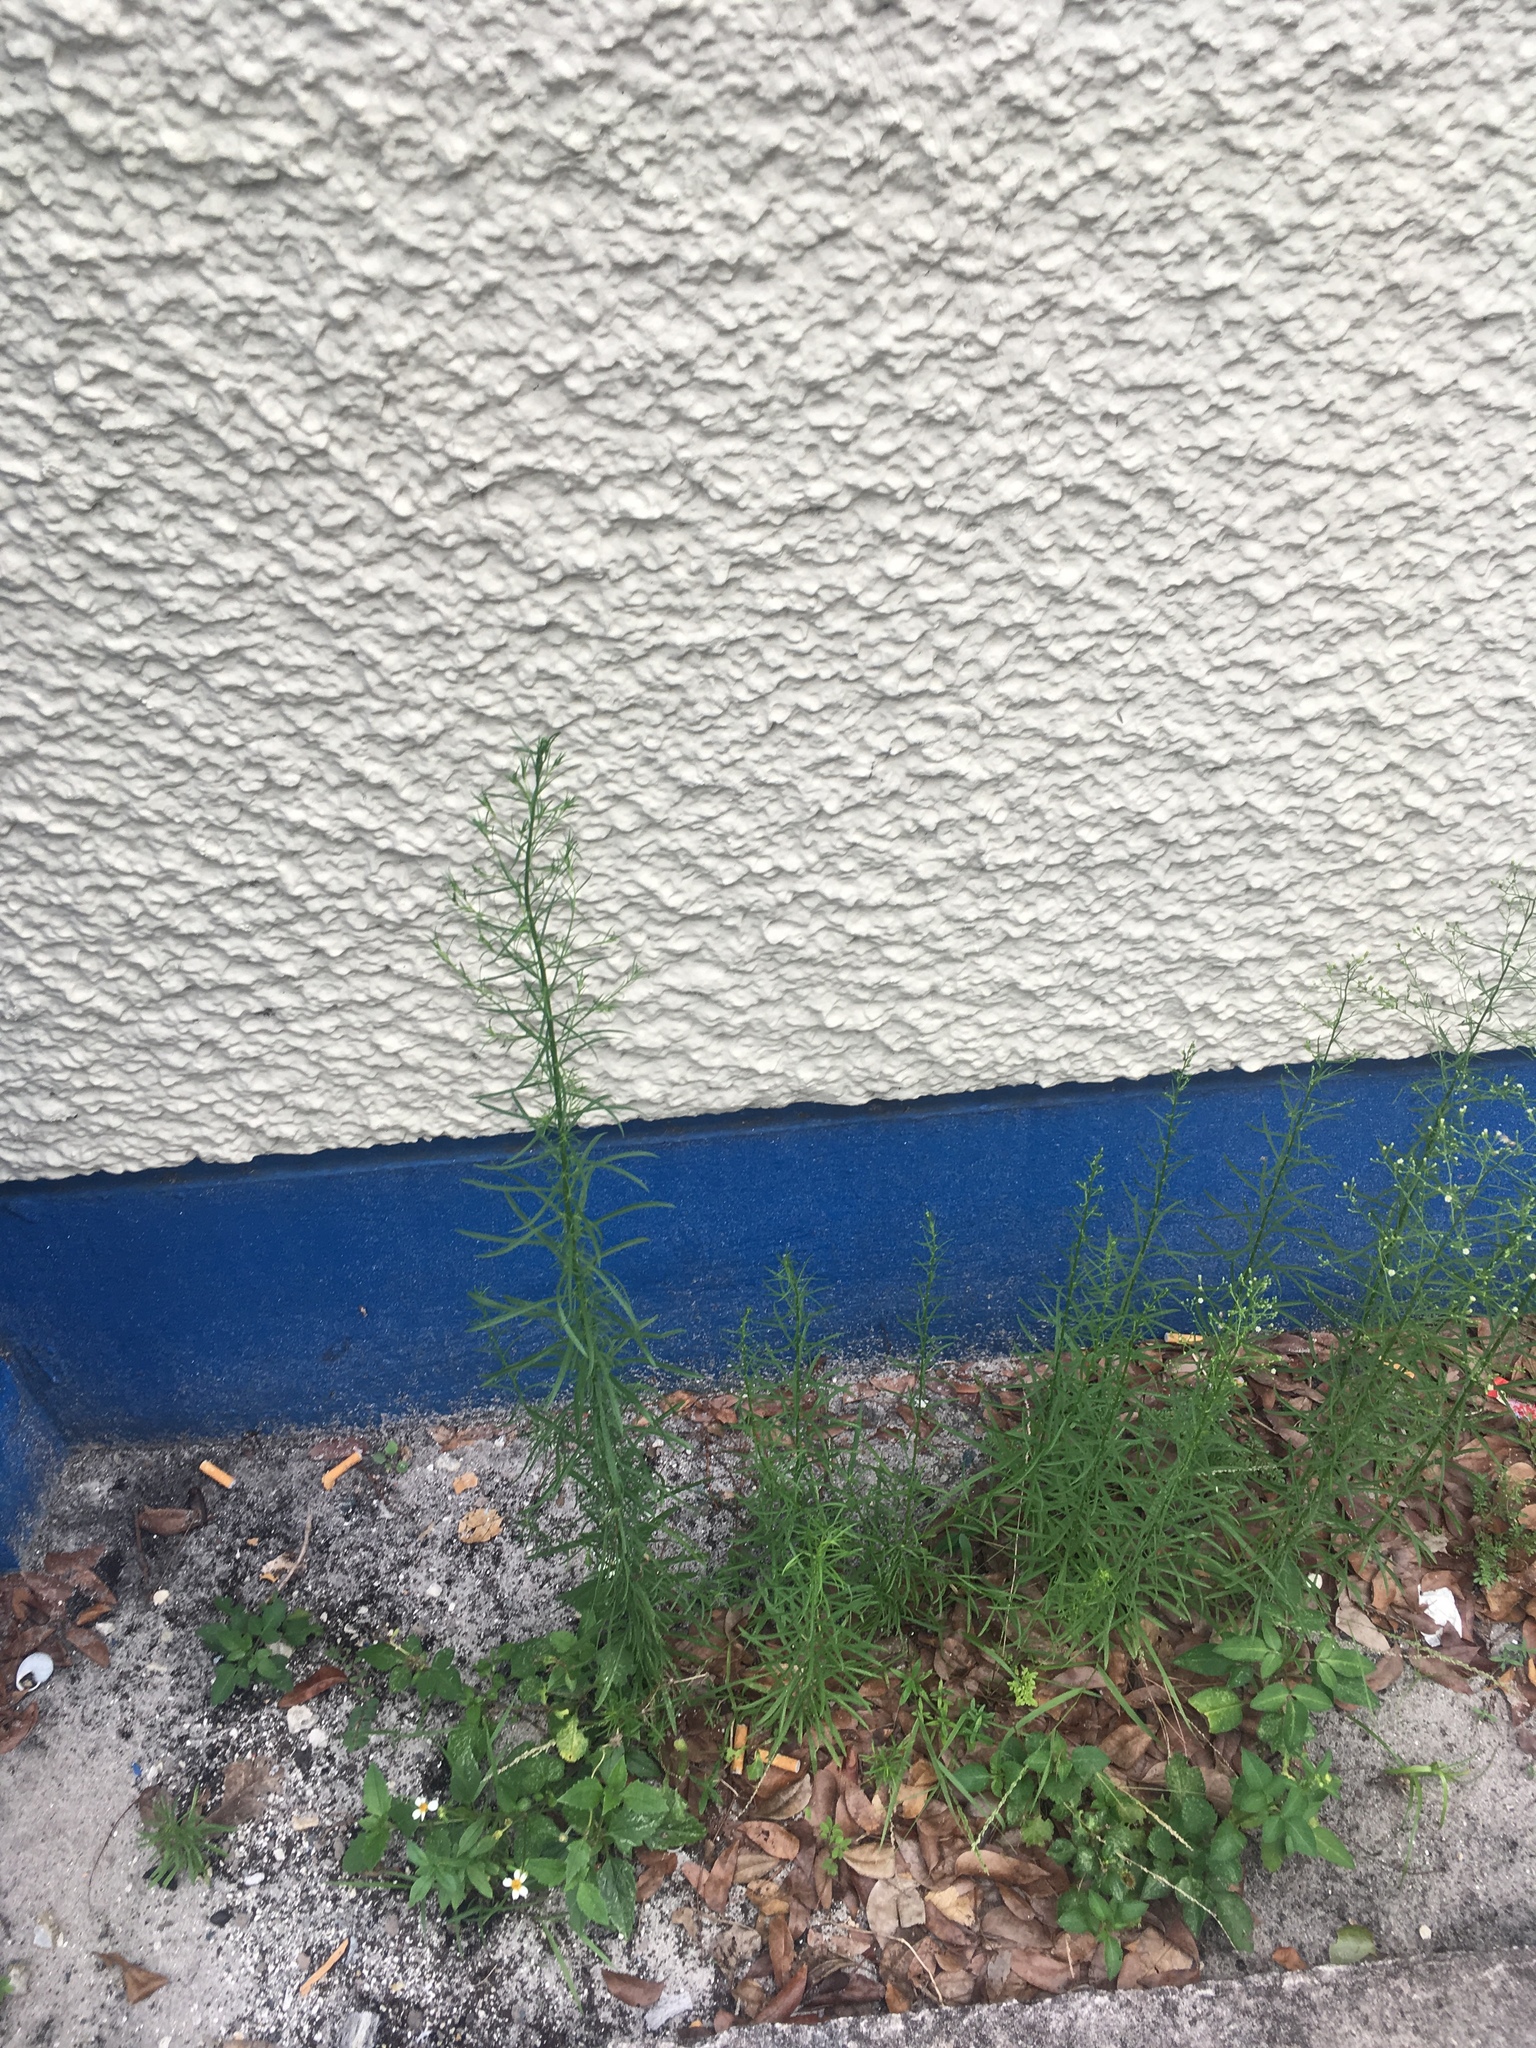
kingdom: Plantae
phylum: Tracheophyta
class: Magnoliopsida
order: Asterales
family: Asteraceae
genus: Erigeron
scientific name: Erigeron canadensis
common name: Canadian fleabane
